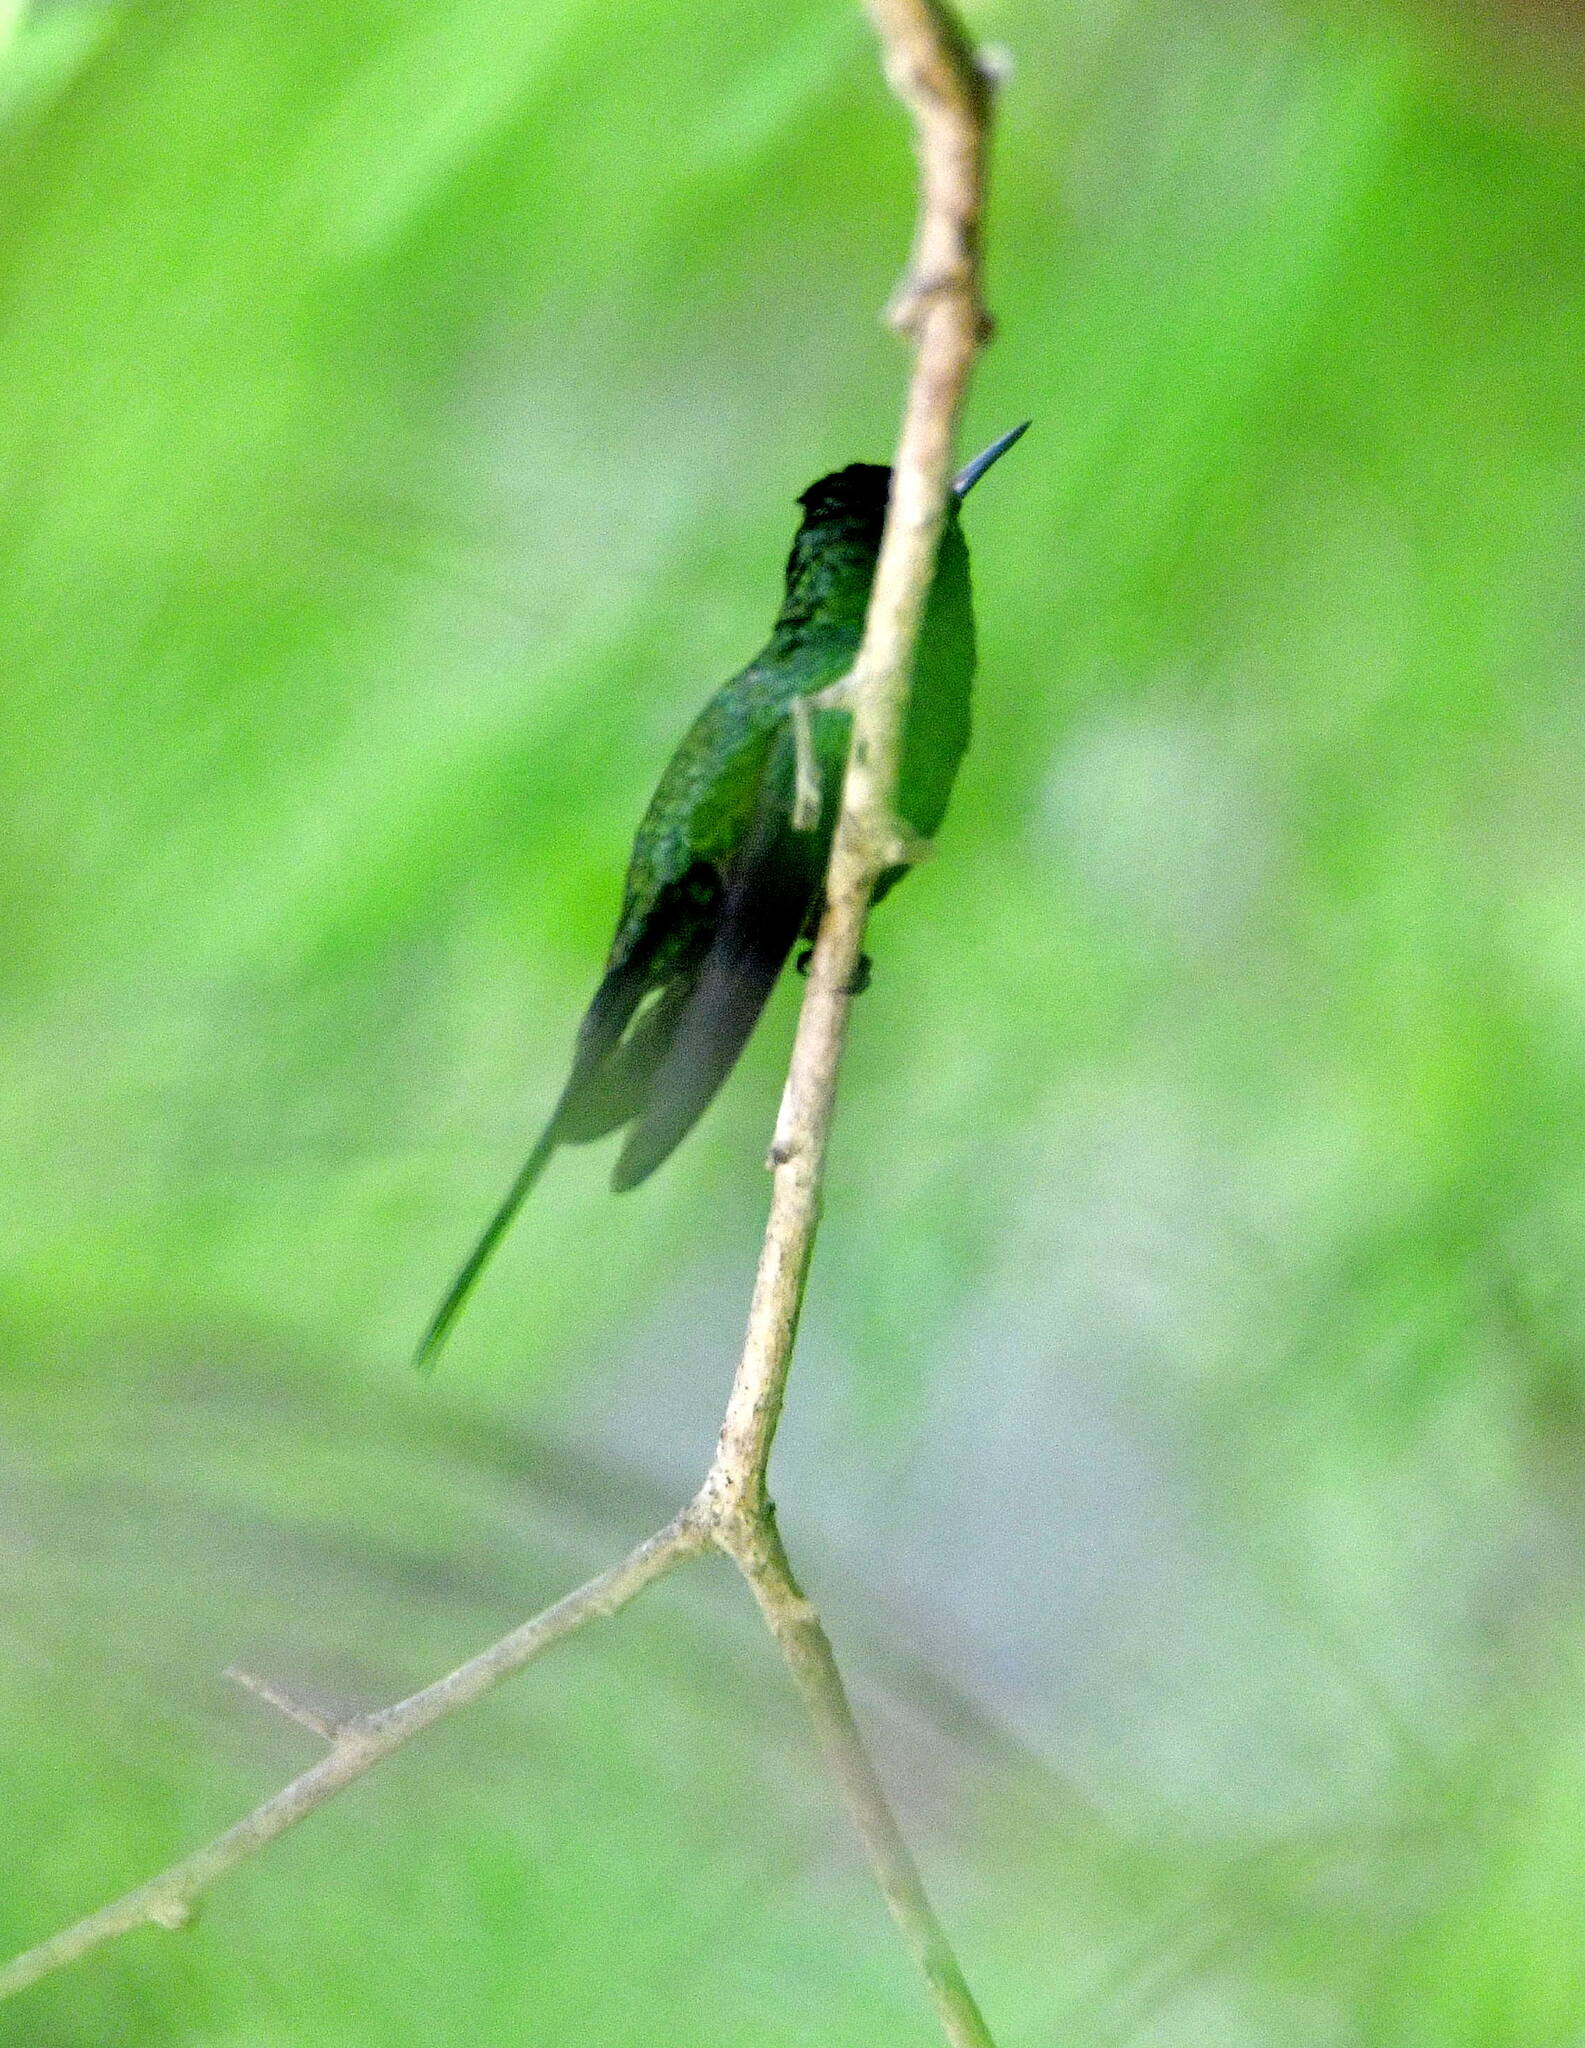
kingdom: Animalia
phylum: Chordata
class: Aves
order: Apodiformes
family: Trochilidae
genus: Cynanthus
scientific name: Cynanthus auriceps
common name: Golden-crowned emerald
